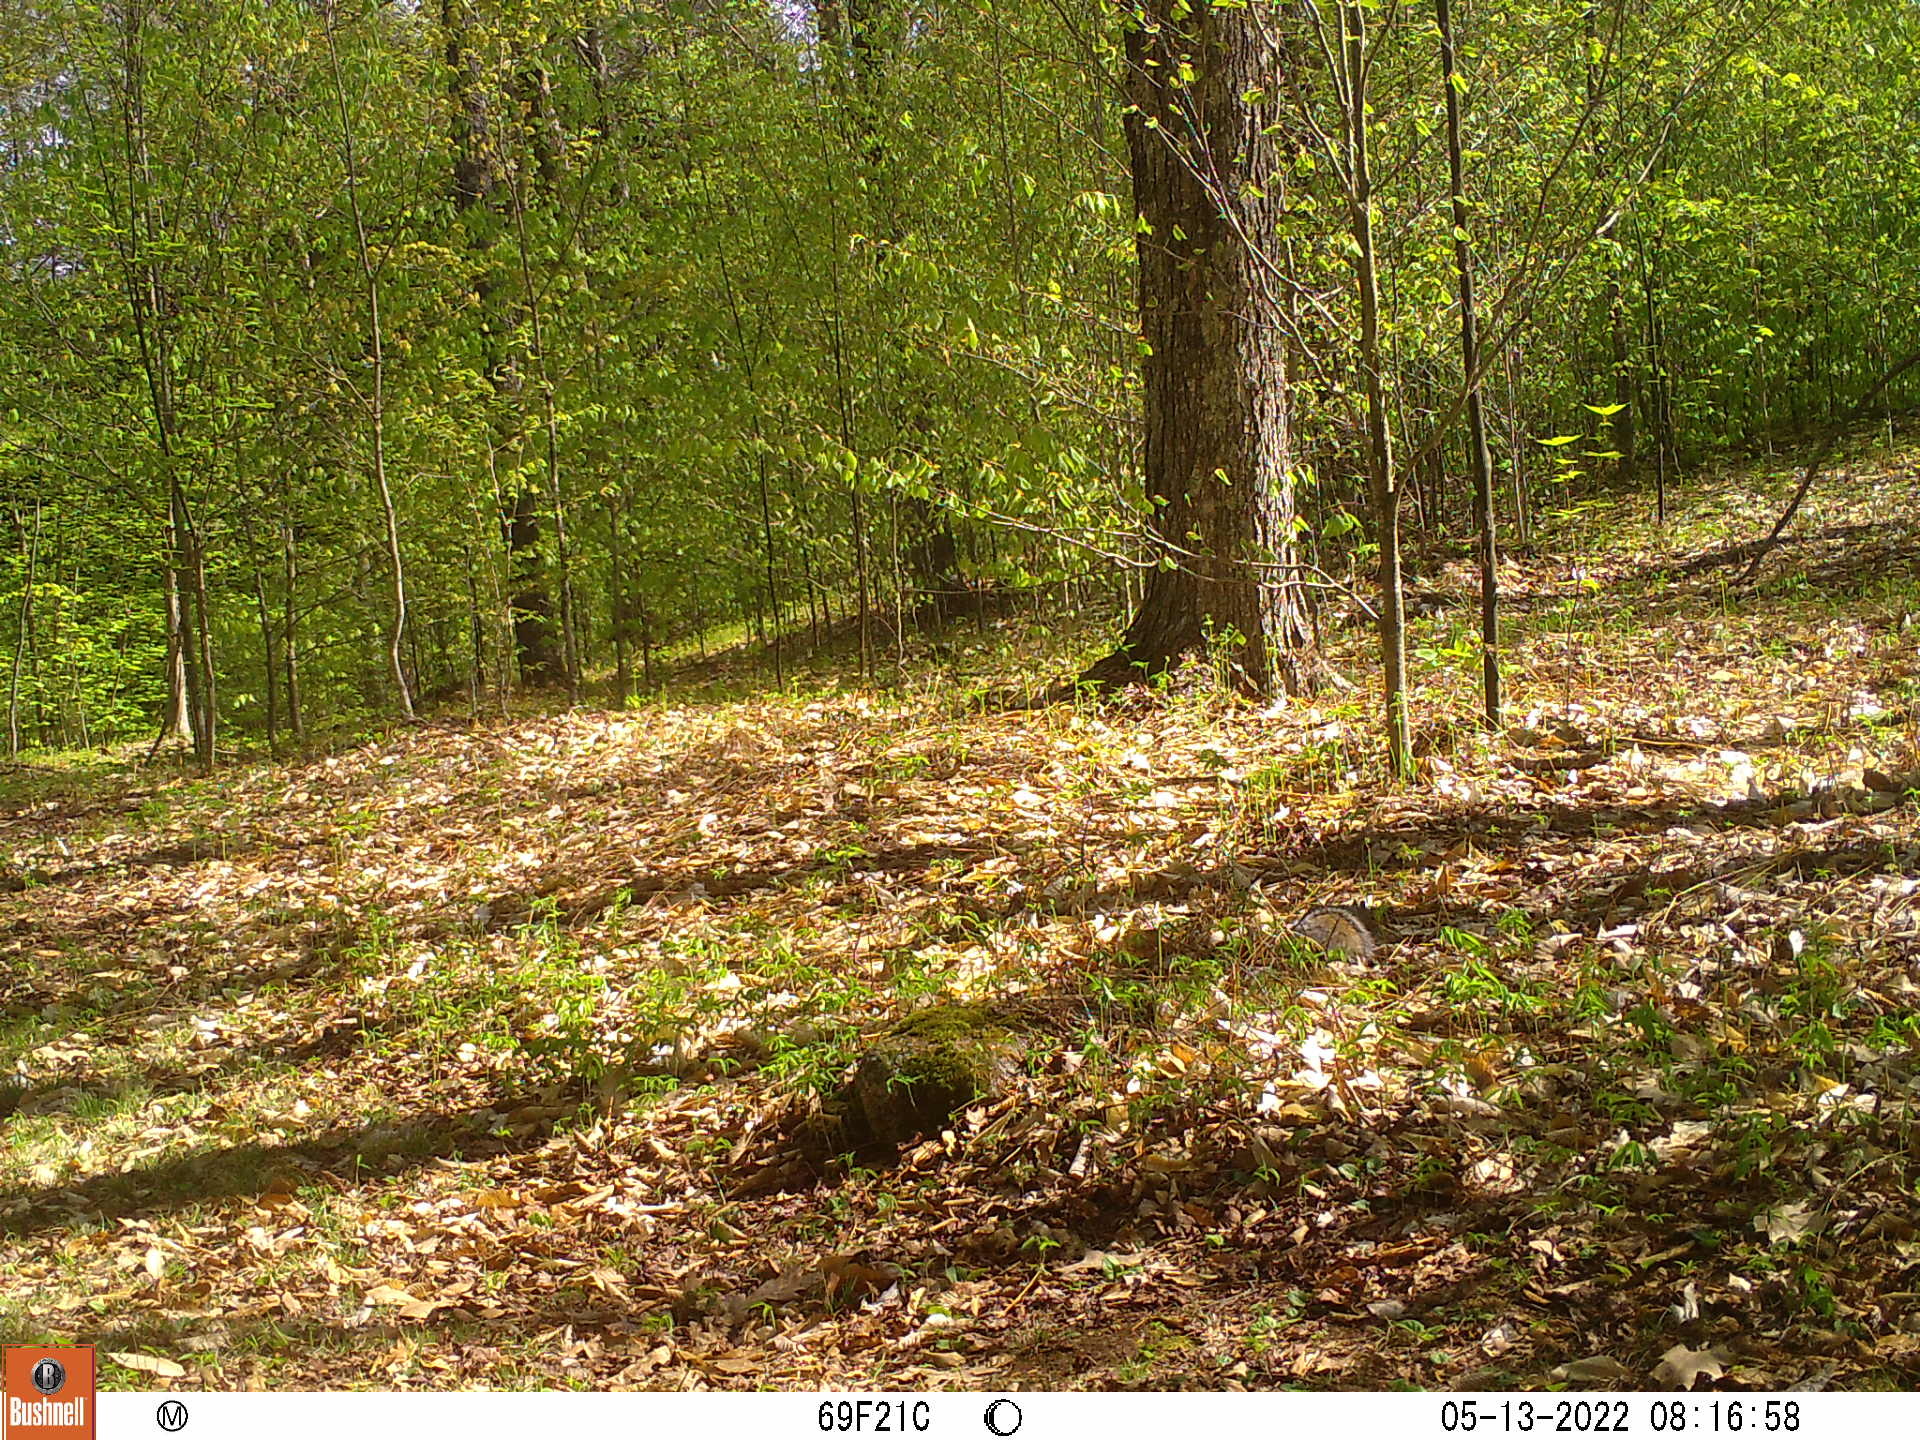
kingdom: Animalia
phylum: Chordata
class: Mammalia
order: Rodentia
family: Sciuridae
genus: Sciurus
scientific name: Sciurus carolinensis
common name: Eastern gray squirrel
